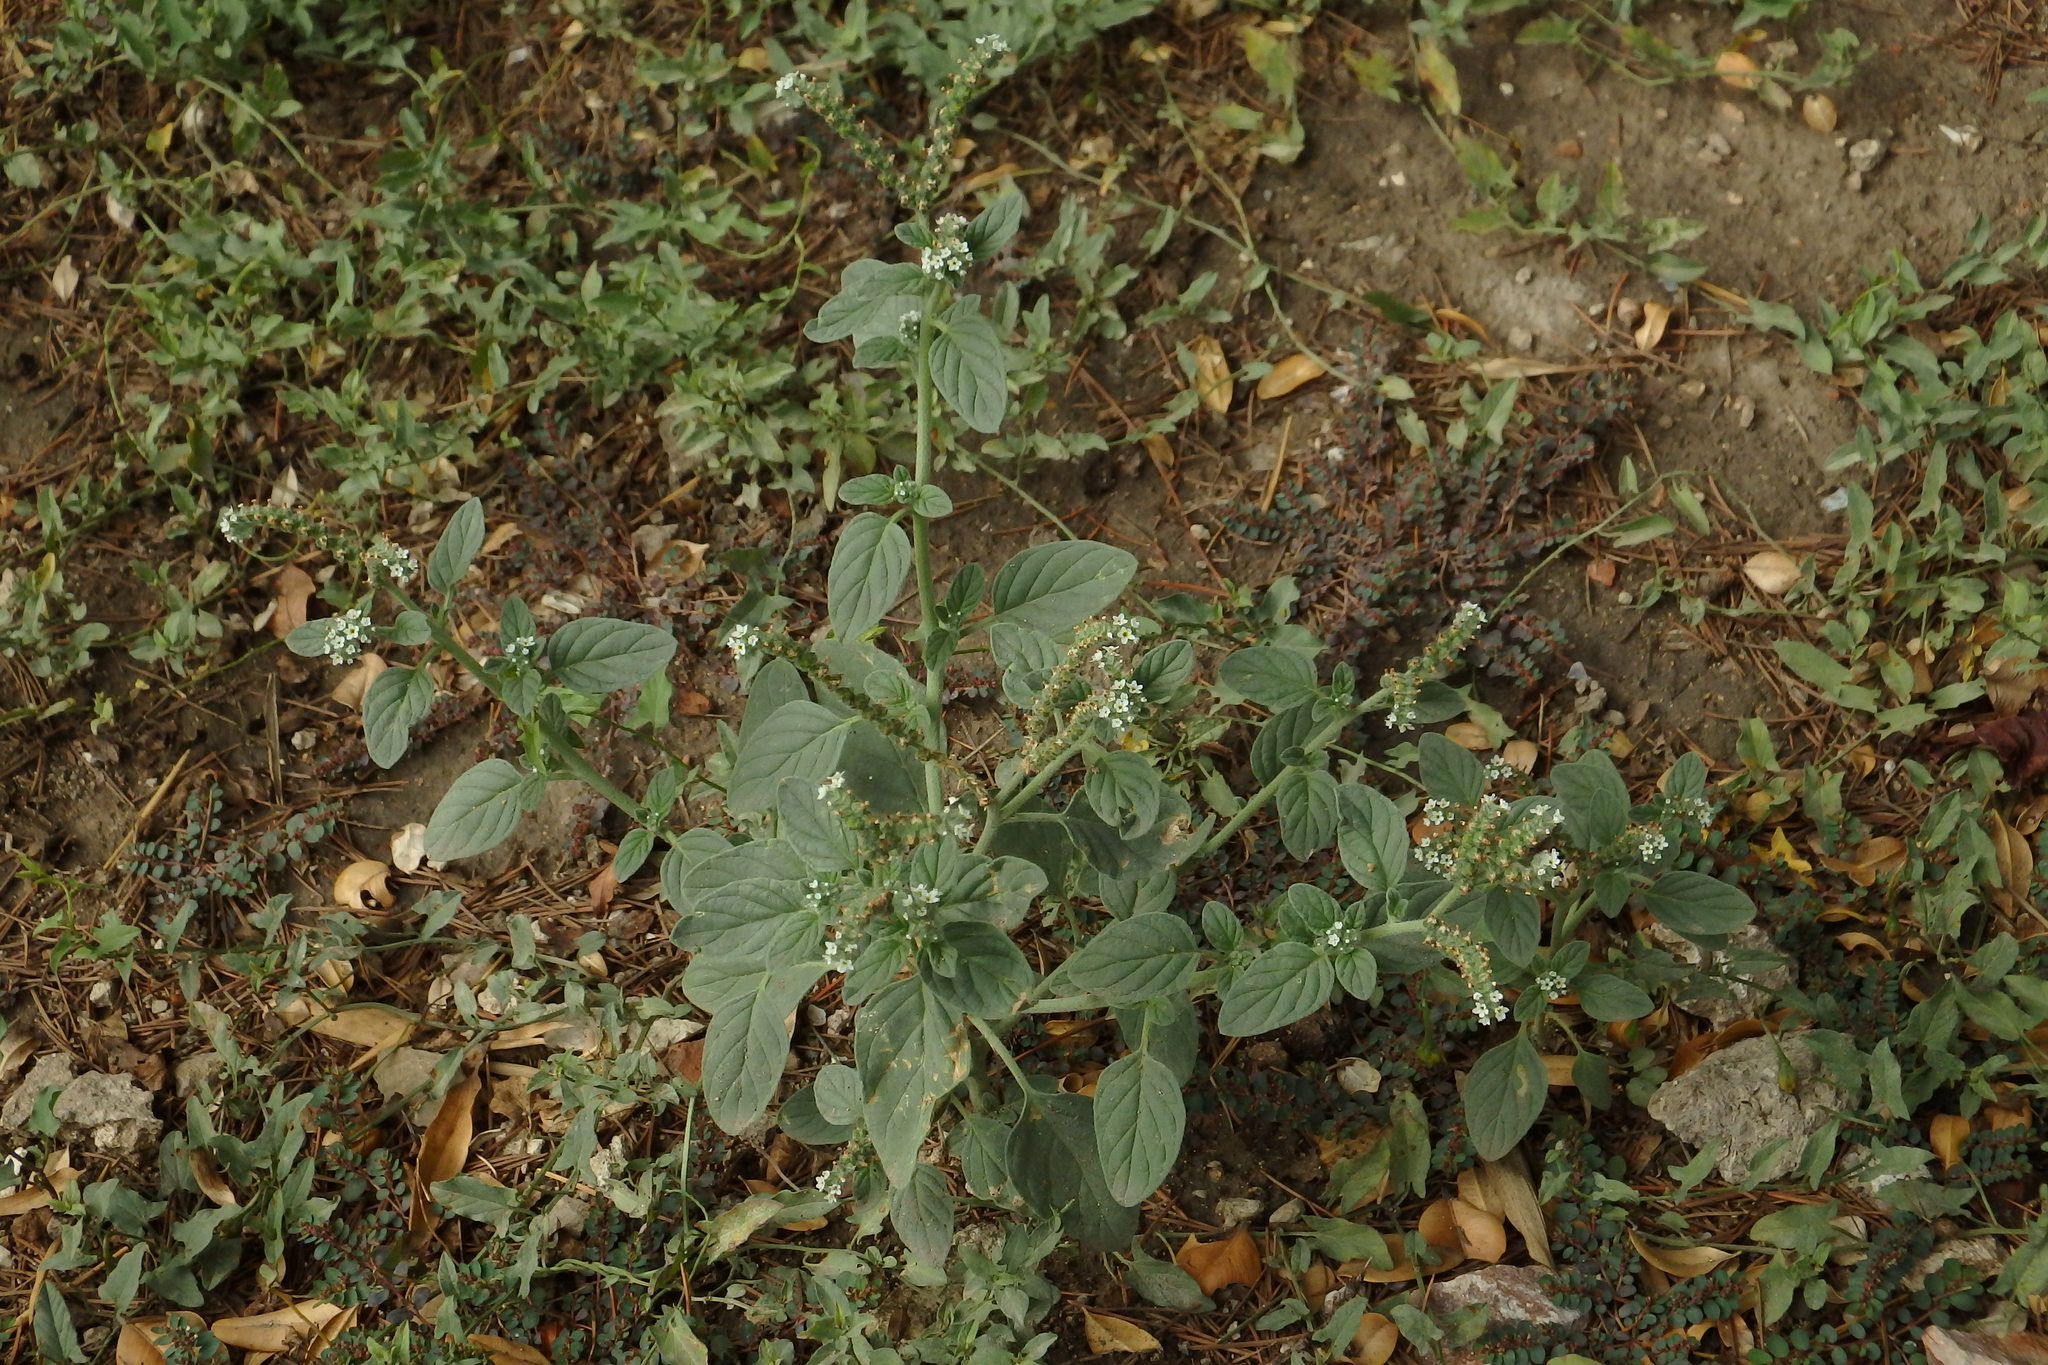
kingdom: Plantae
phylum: Tracheophyta
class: Magnoliopsida
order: Boraginales
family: Heliotropiaceae
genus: Heliotropium
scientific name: Heliotropium europaeum
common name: European heliotrope
